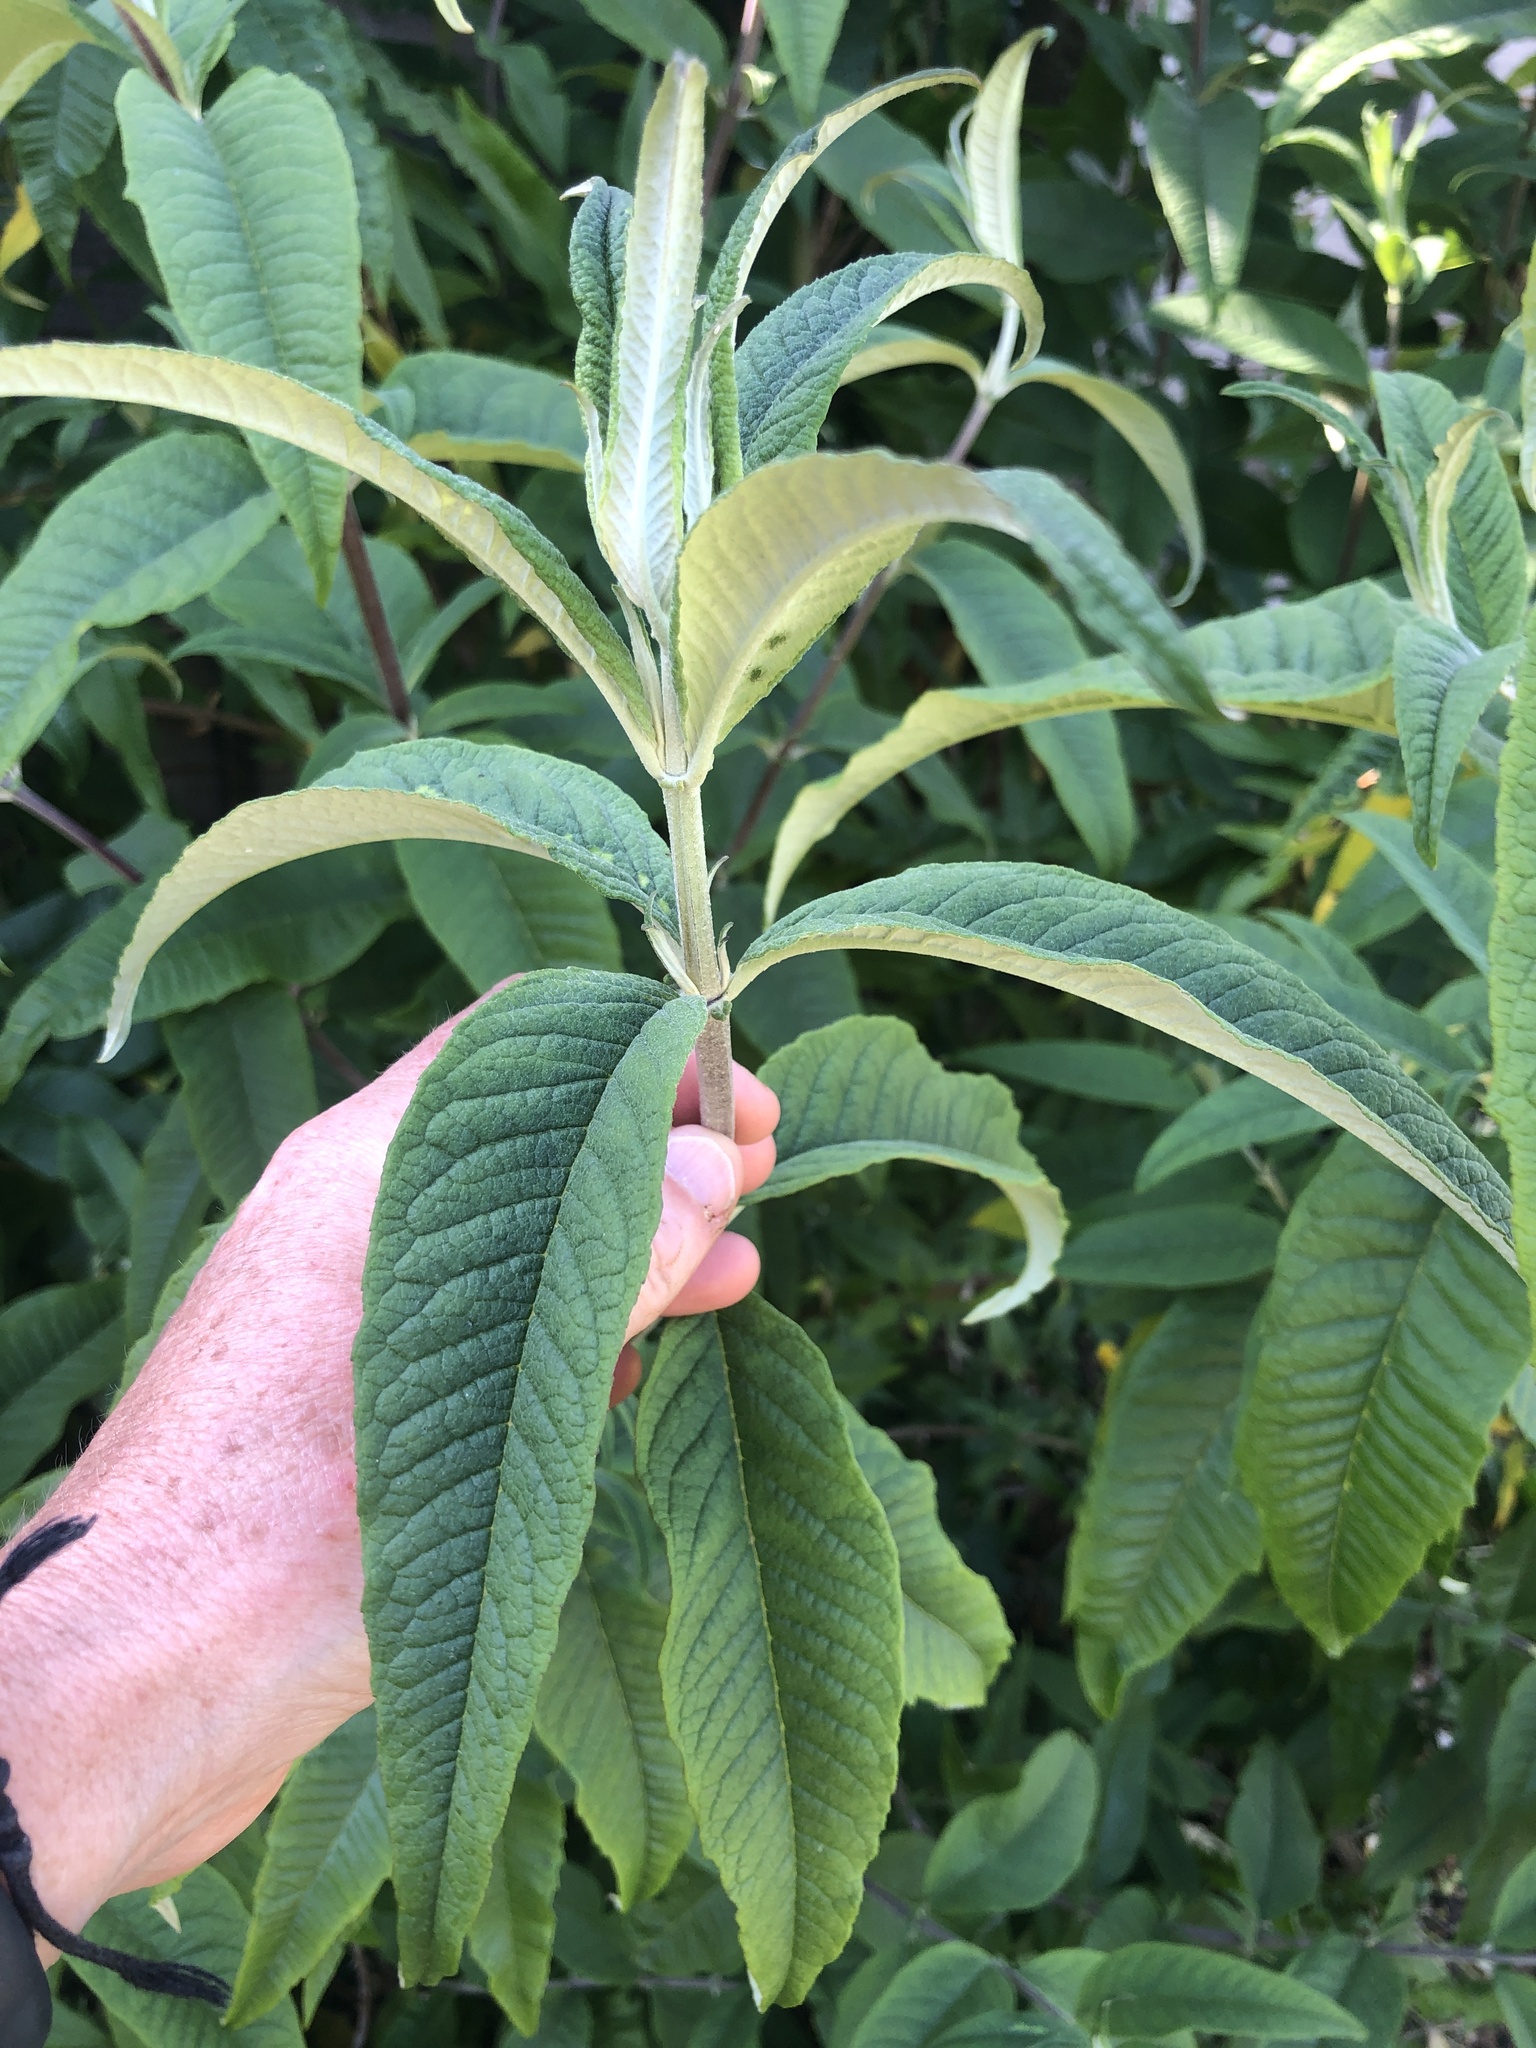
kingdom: Plantae
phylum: Tracheophyta
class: Magnoliopsida
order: Lamiales
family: Scrophulariaceae
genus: Buddleja
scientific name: Buddleja davidii
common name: Butterfly-bush
